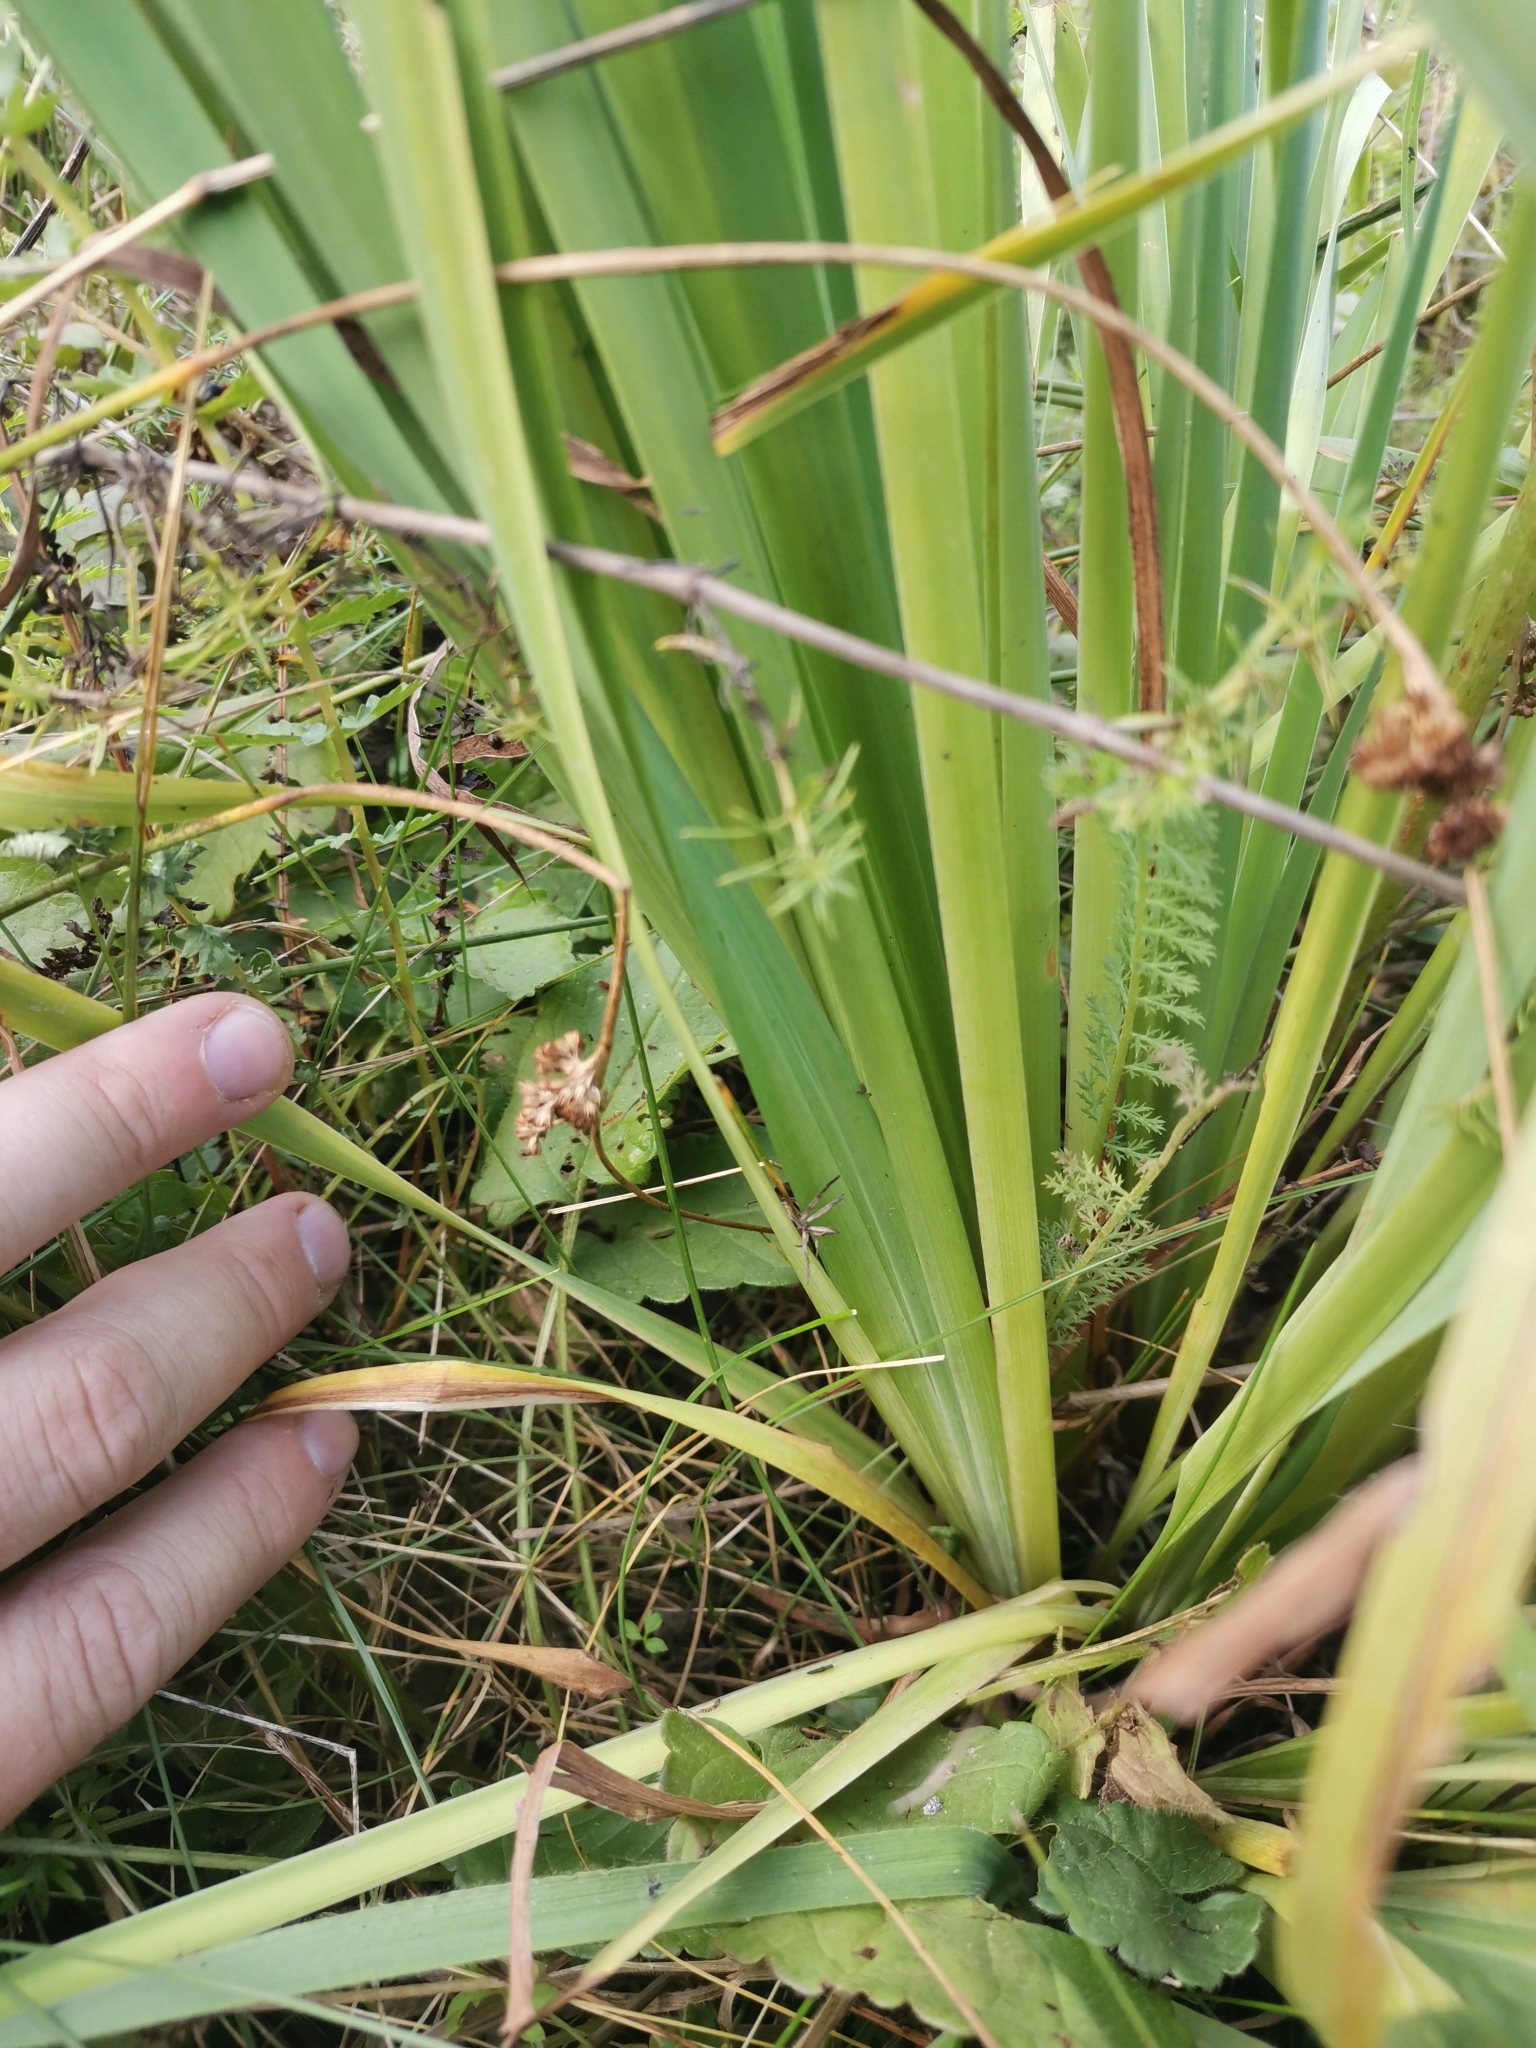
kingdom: Plantae
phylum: Tracheophyta
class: Liliopsida
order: Asparagales
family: Iridaceae
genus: Iris
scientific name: Iris sibirica
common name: Siberian iris
